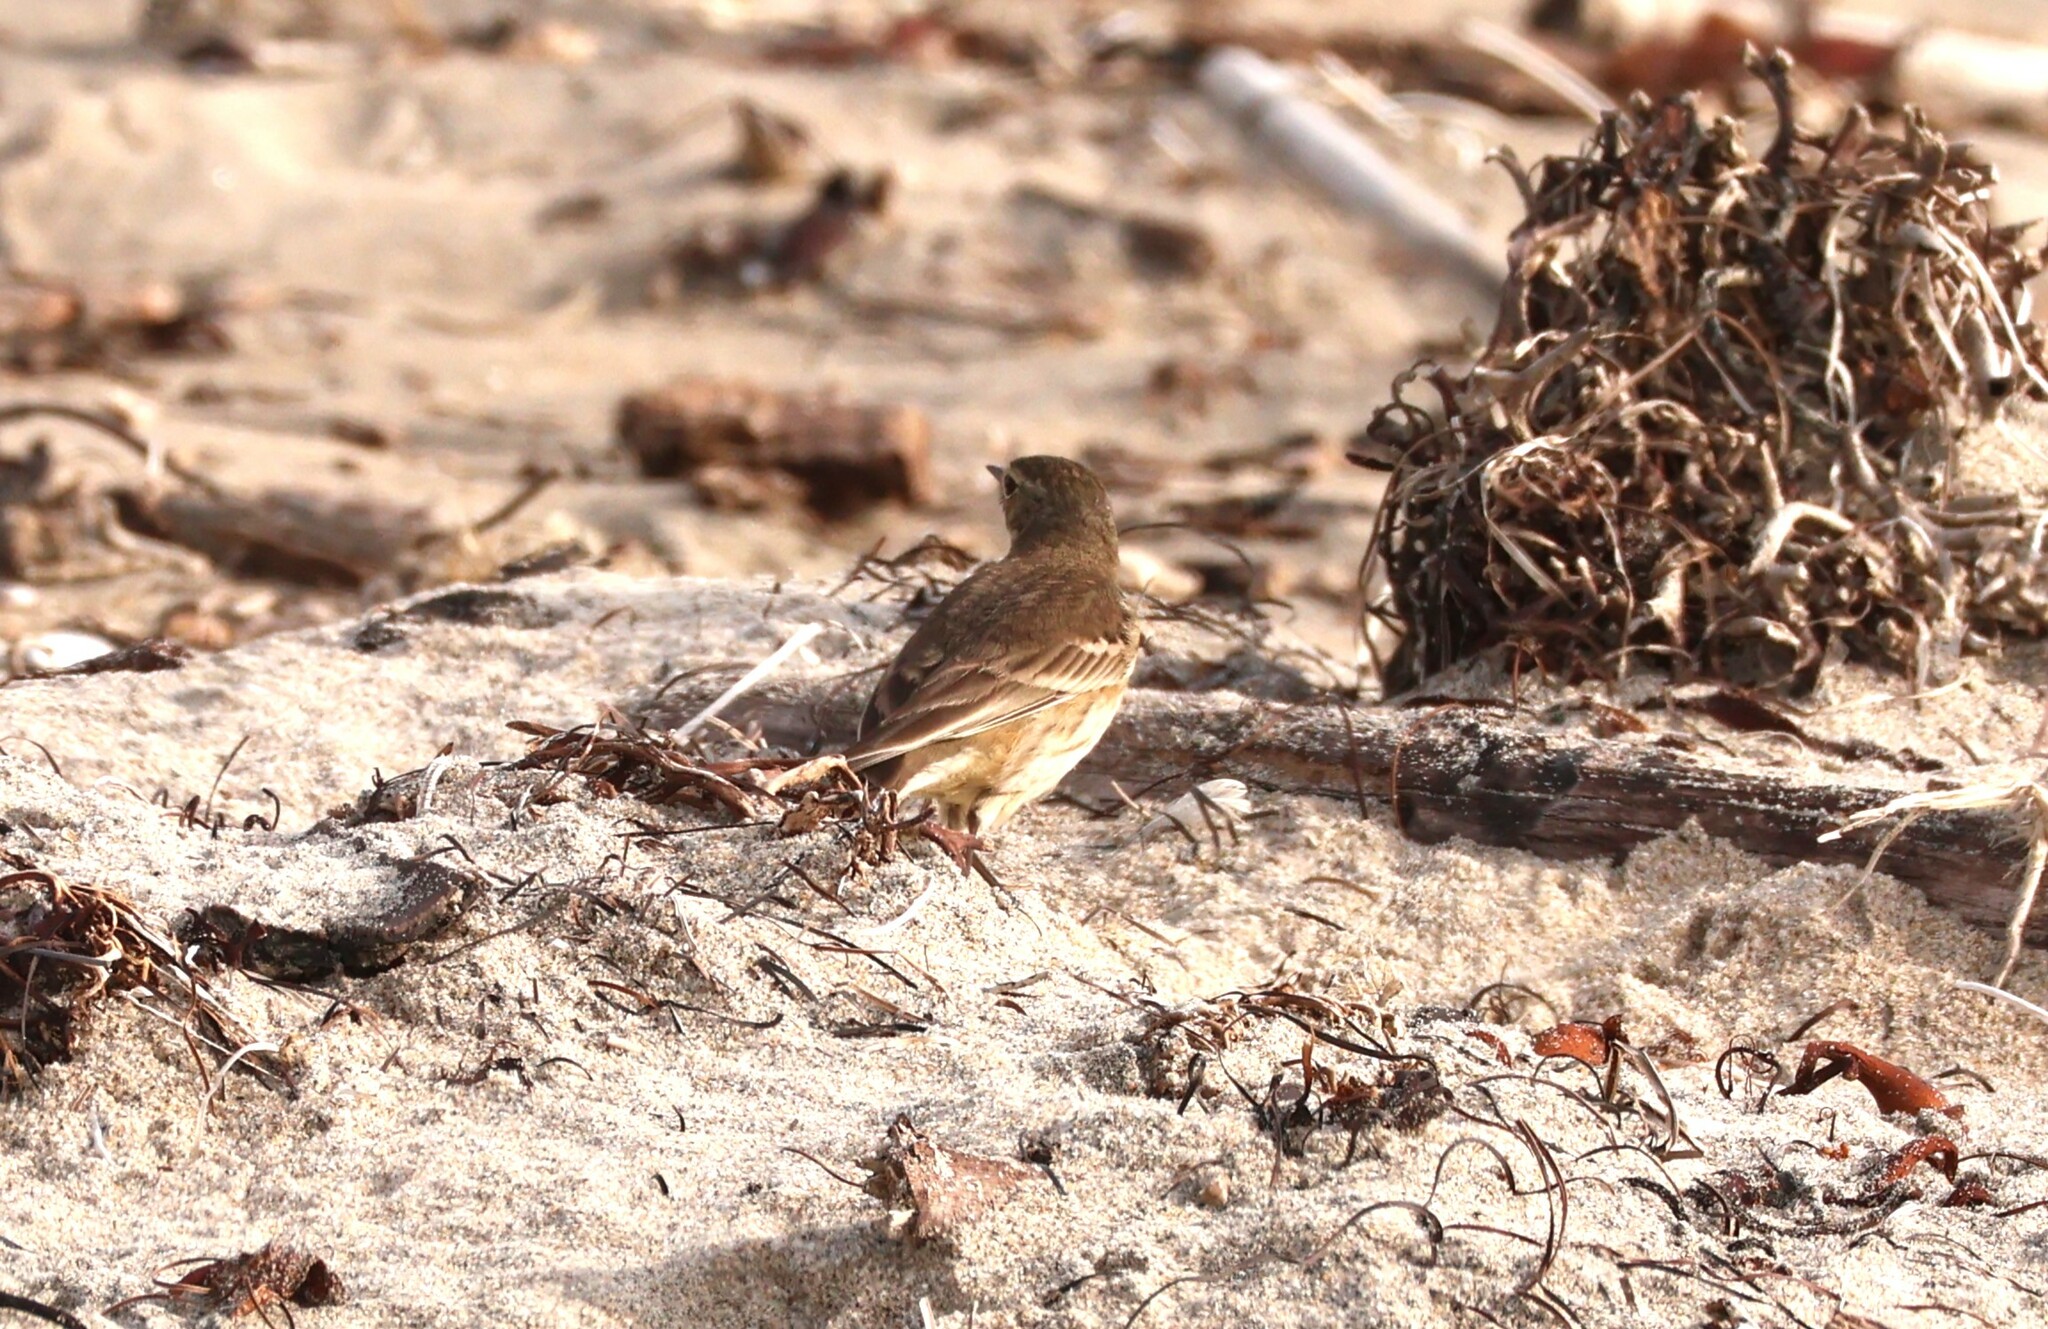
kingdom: Animalia
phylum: Chordata
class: Aves
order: Passeriformes
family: Motacillidae
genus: Anthus
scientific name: Anthus rubescens
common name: Buff-bellied pipit
